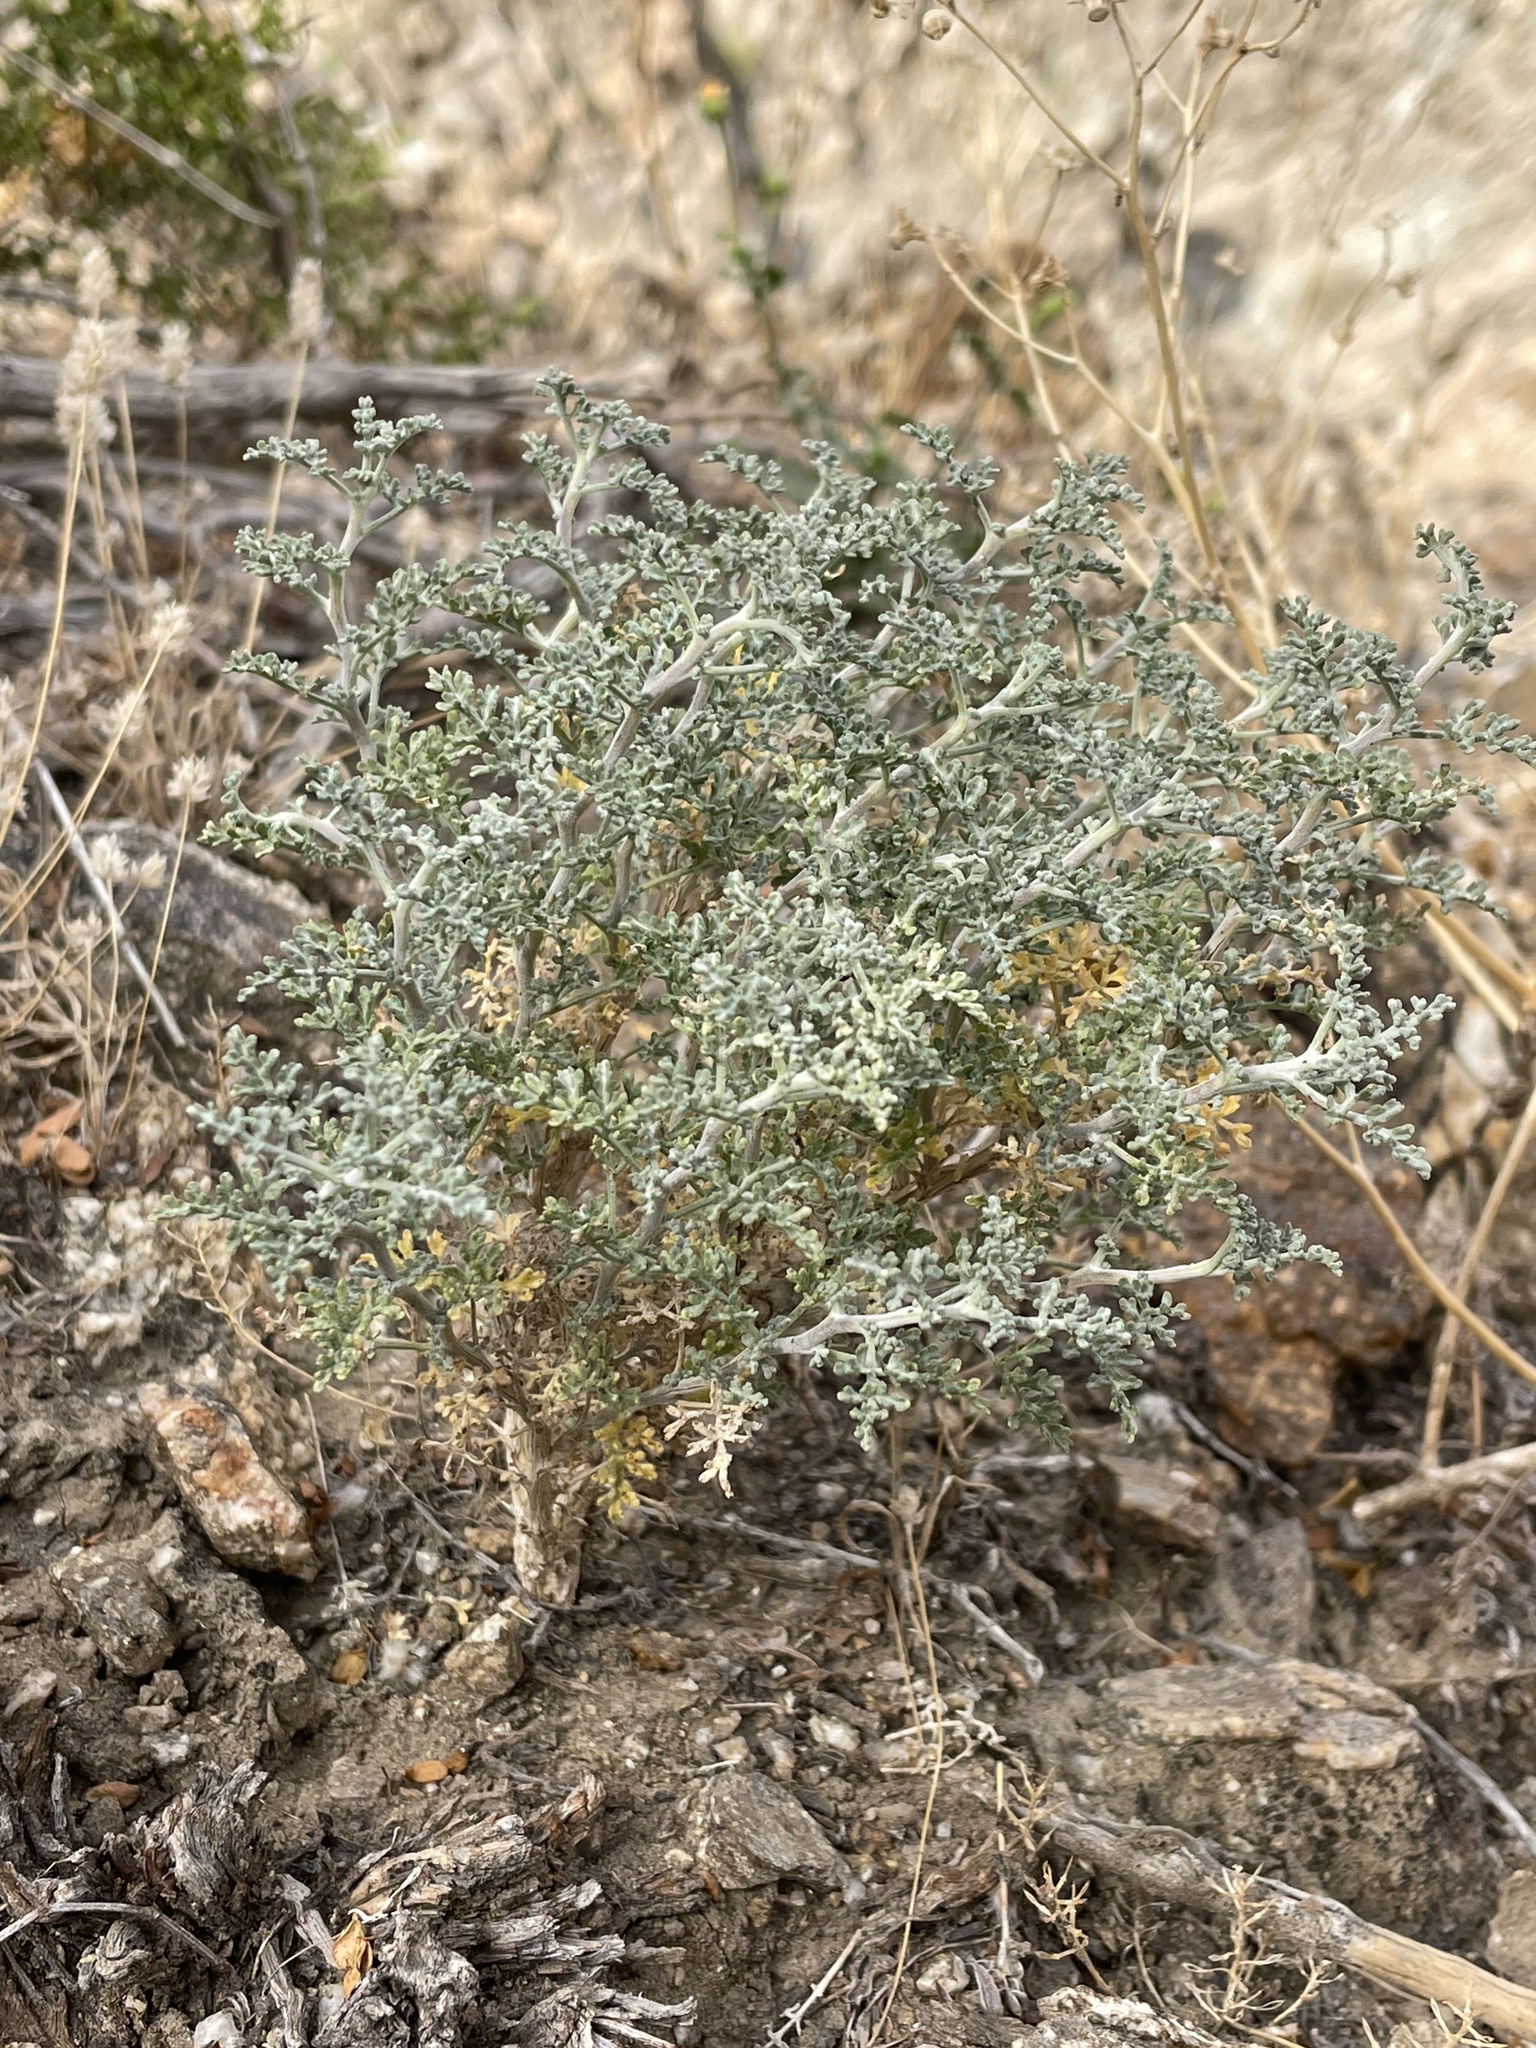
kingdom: Plantae
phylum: Tracheophyta
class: Magnoliopsida
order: Asterales
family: Asteraceae
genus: Ambrosia
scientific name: Ambrosia dumosa
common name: Bur-sage
